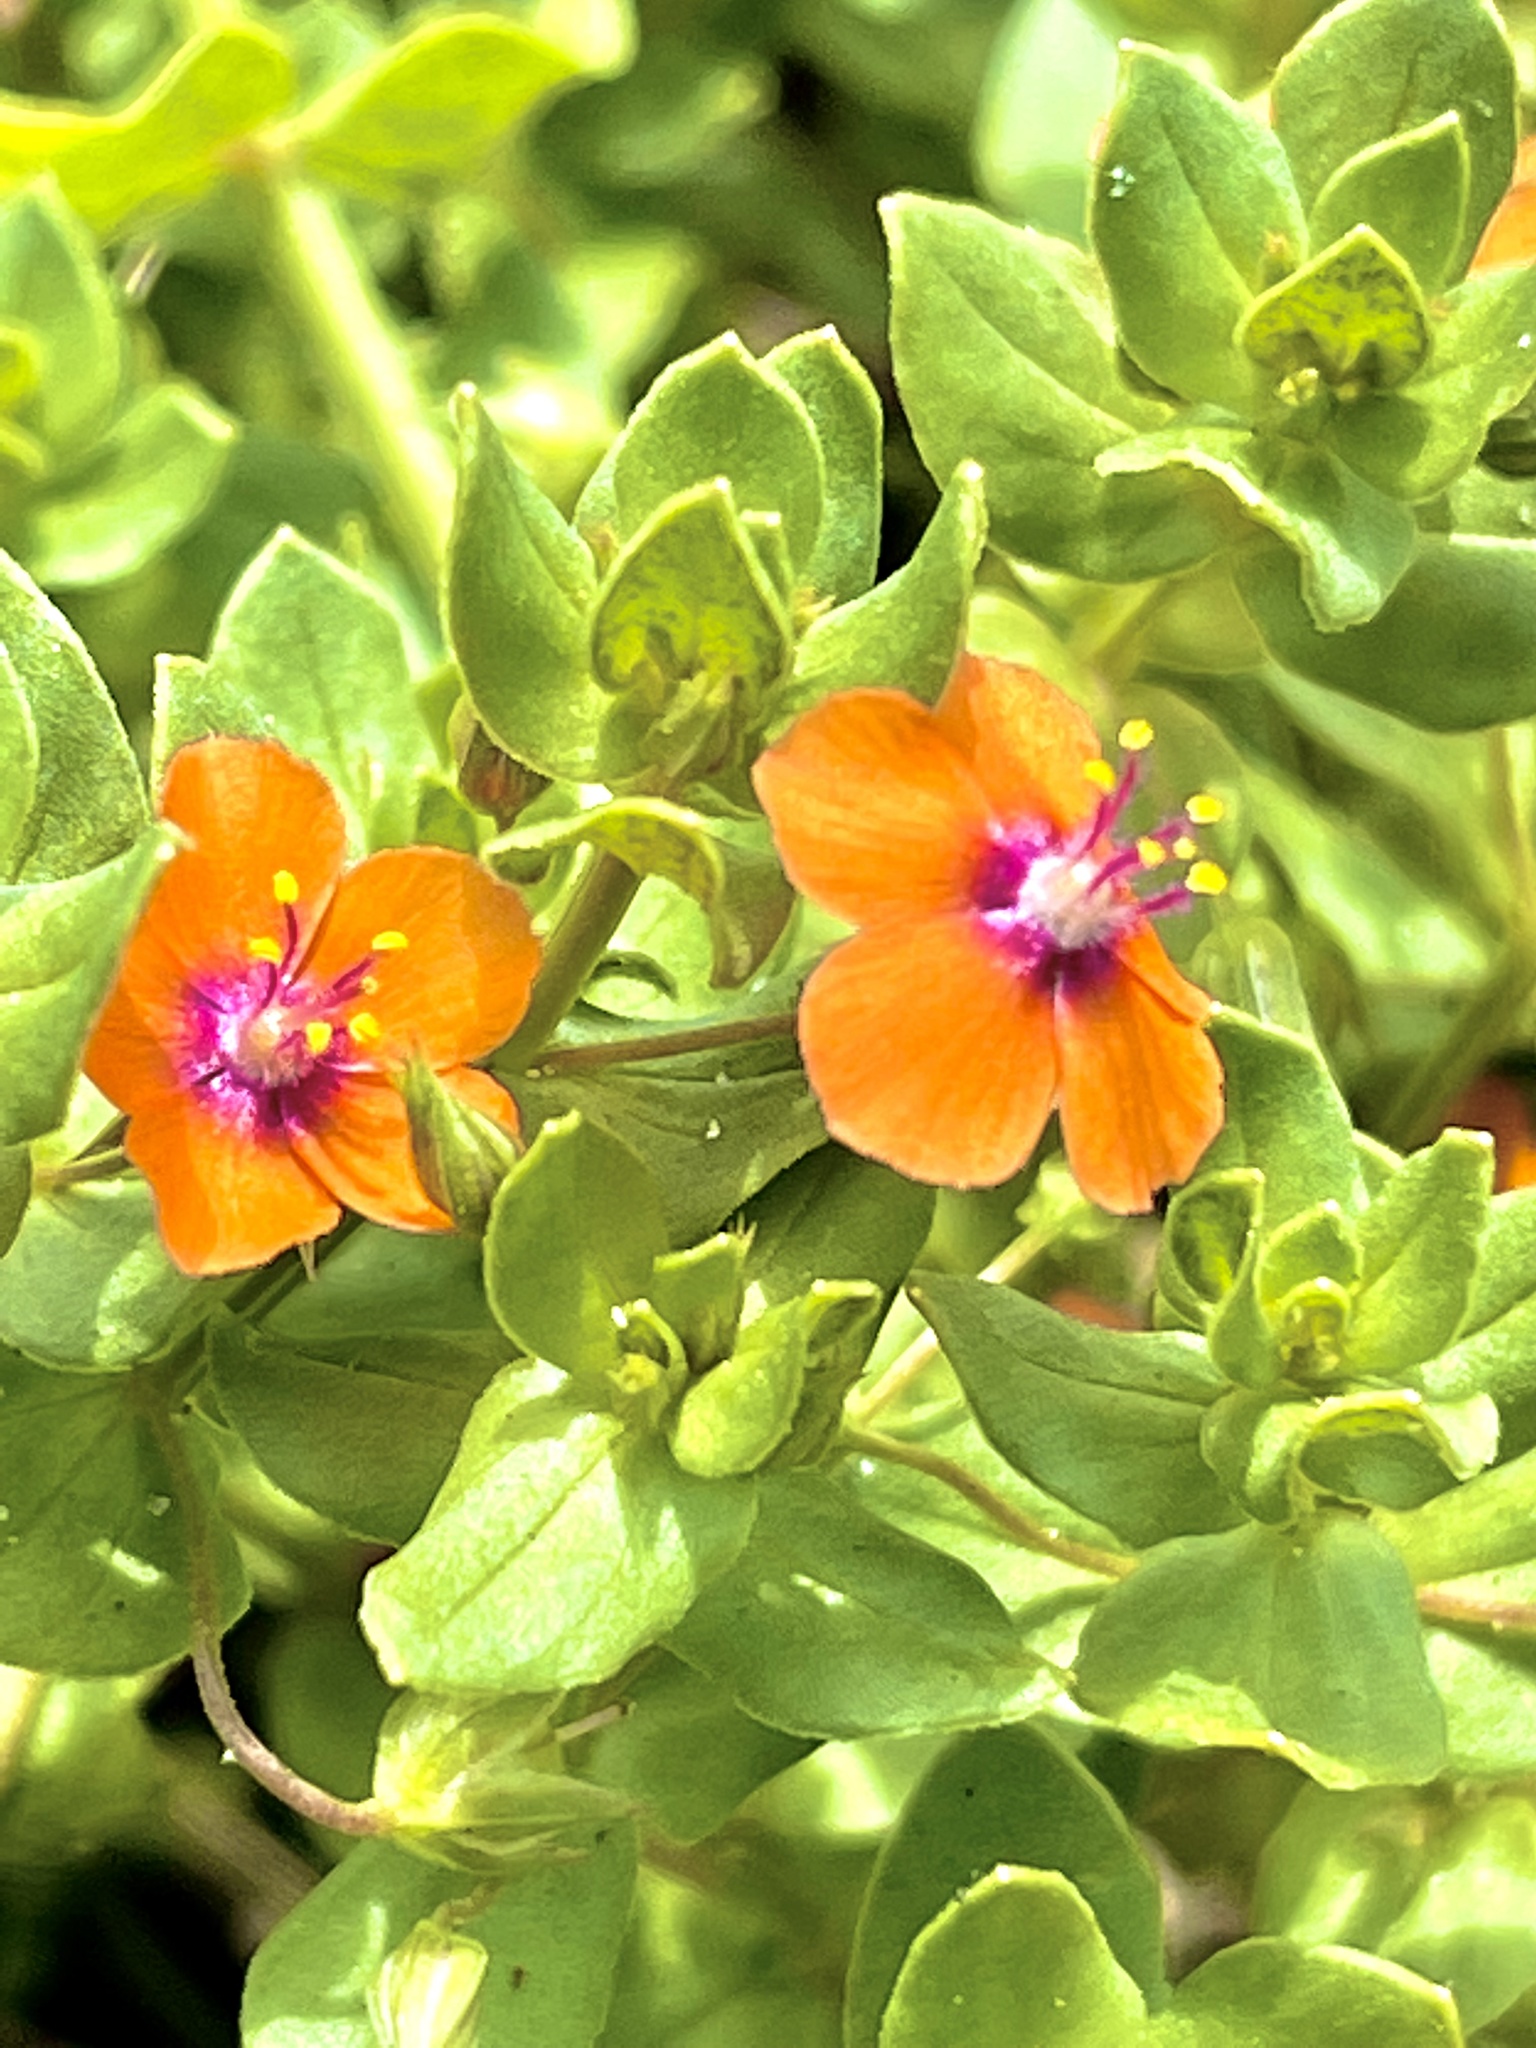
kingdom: Plantae
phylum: Tracheophyta
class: Magnoliopsida
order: Ericales
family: Primulaceae
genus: Lysimachia
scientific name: Lysimachia arvensis
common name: Scarlet pimpernel
